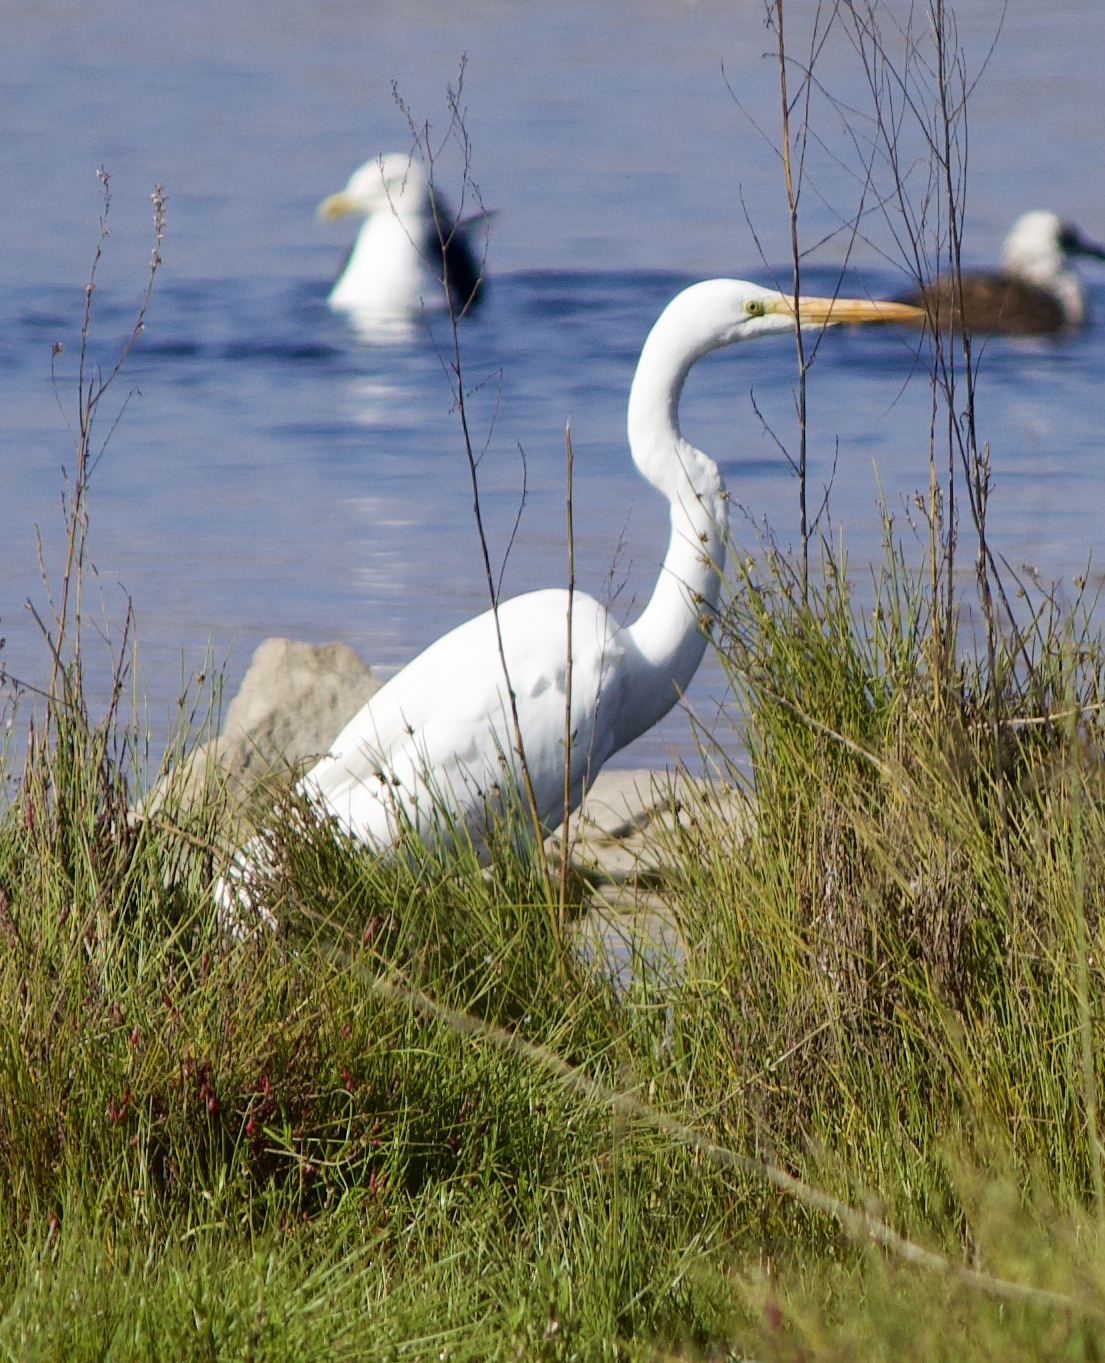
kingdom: Animalia
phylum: Chordata
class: Aves
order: Pelecaniformes
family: Ardeidae
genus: Ardea
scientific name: Ardea alba
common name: Great egret
